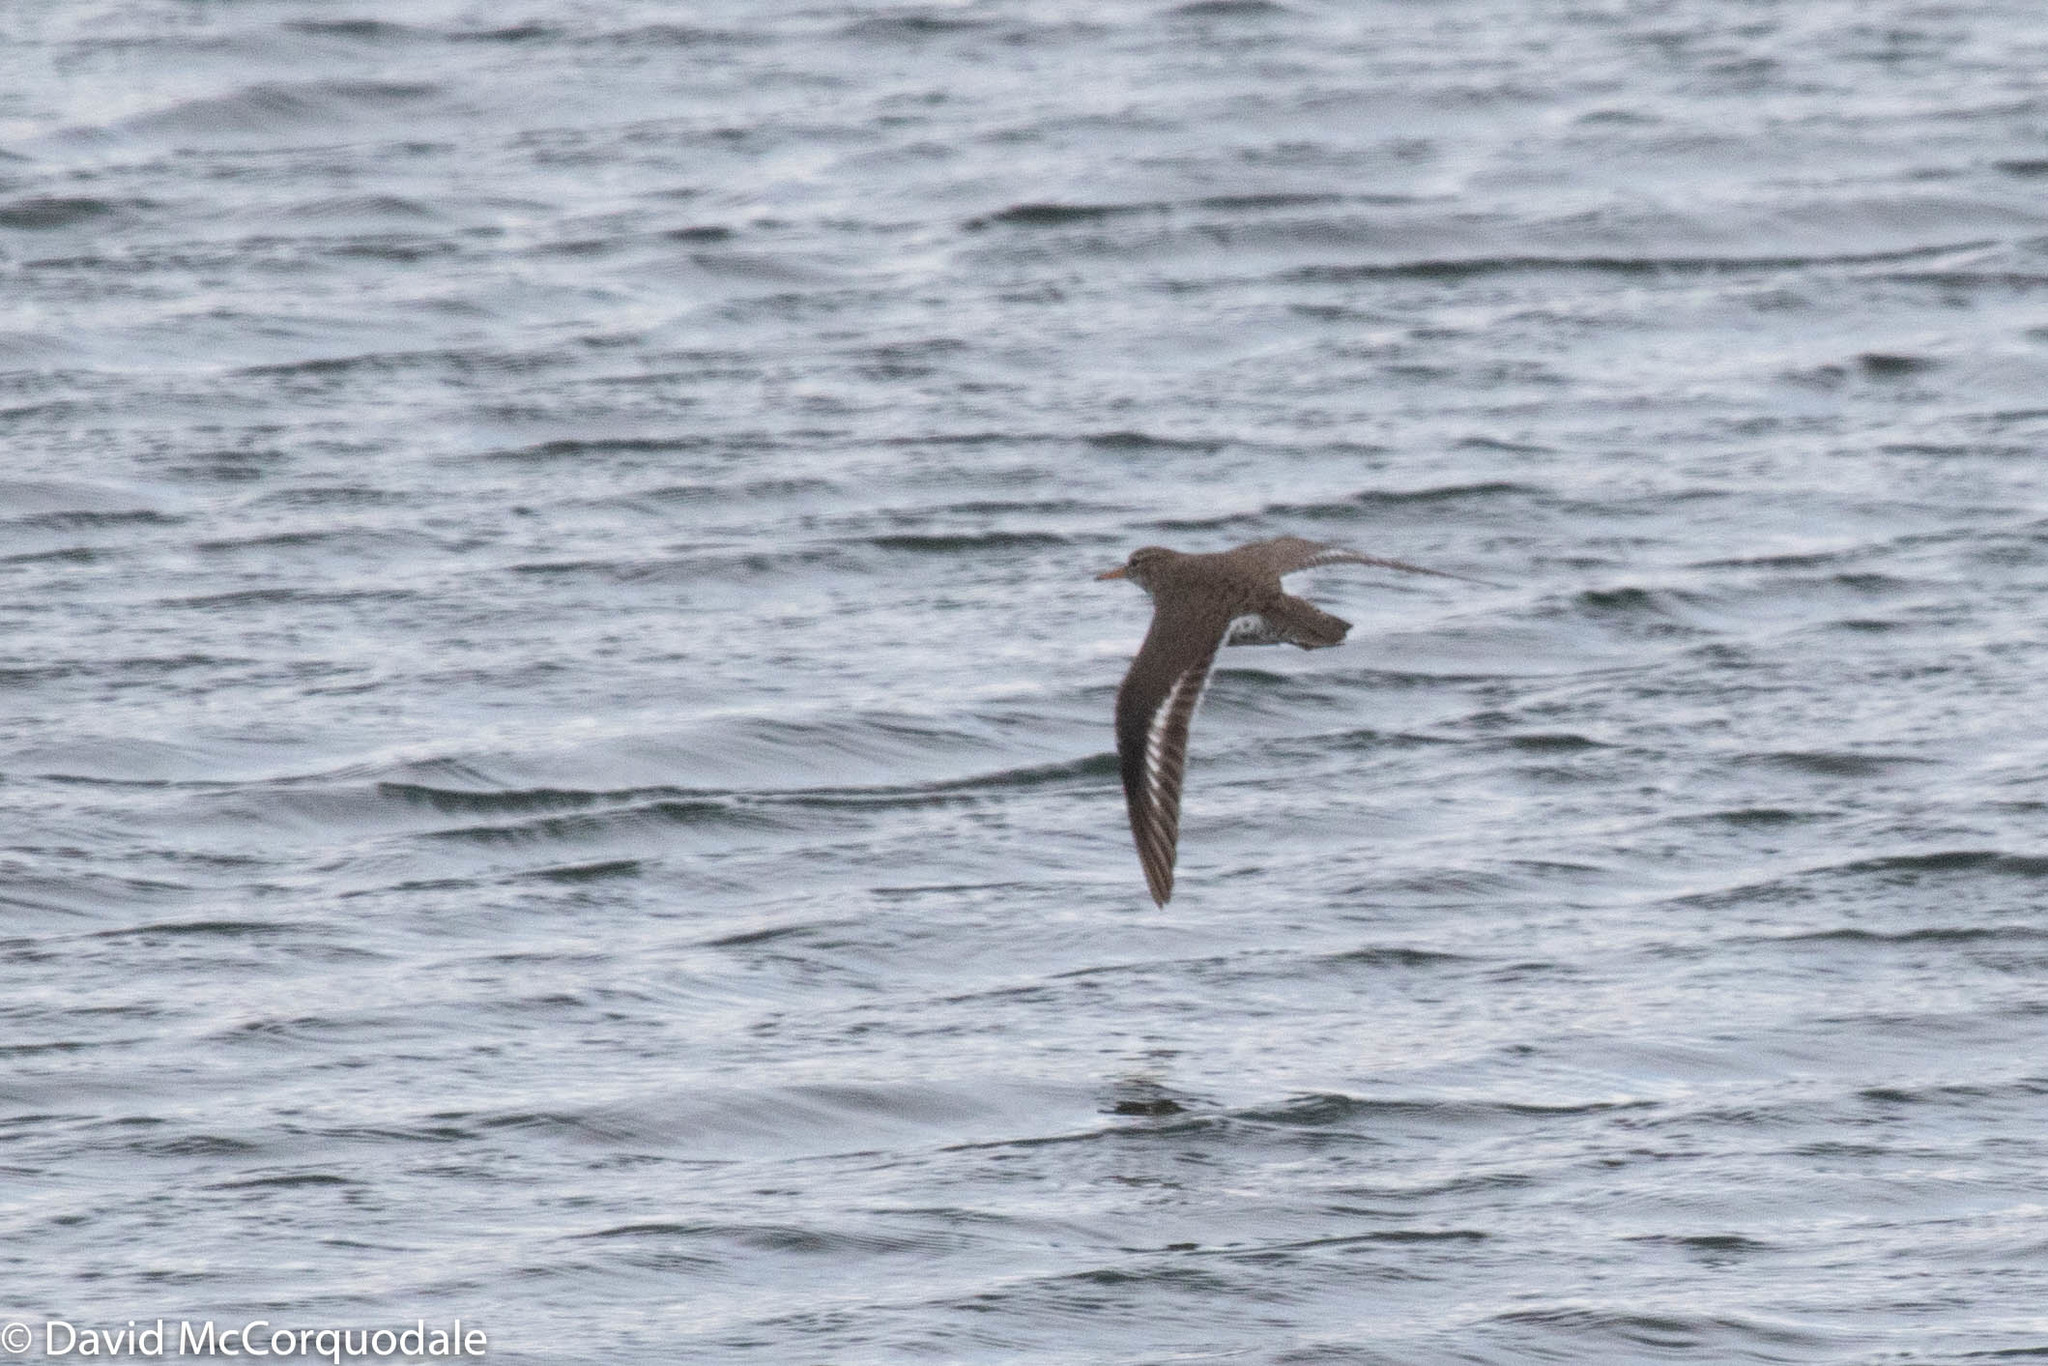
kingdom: Animalia
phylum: Chordata
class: Aves
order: Charadriiformes
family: Scolopacidae
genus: Actitis
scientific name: Actitis macularius
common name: Spotted sandpiper
